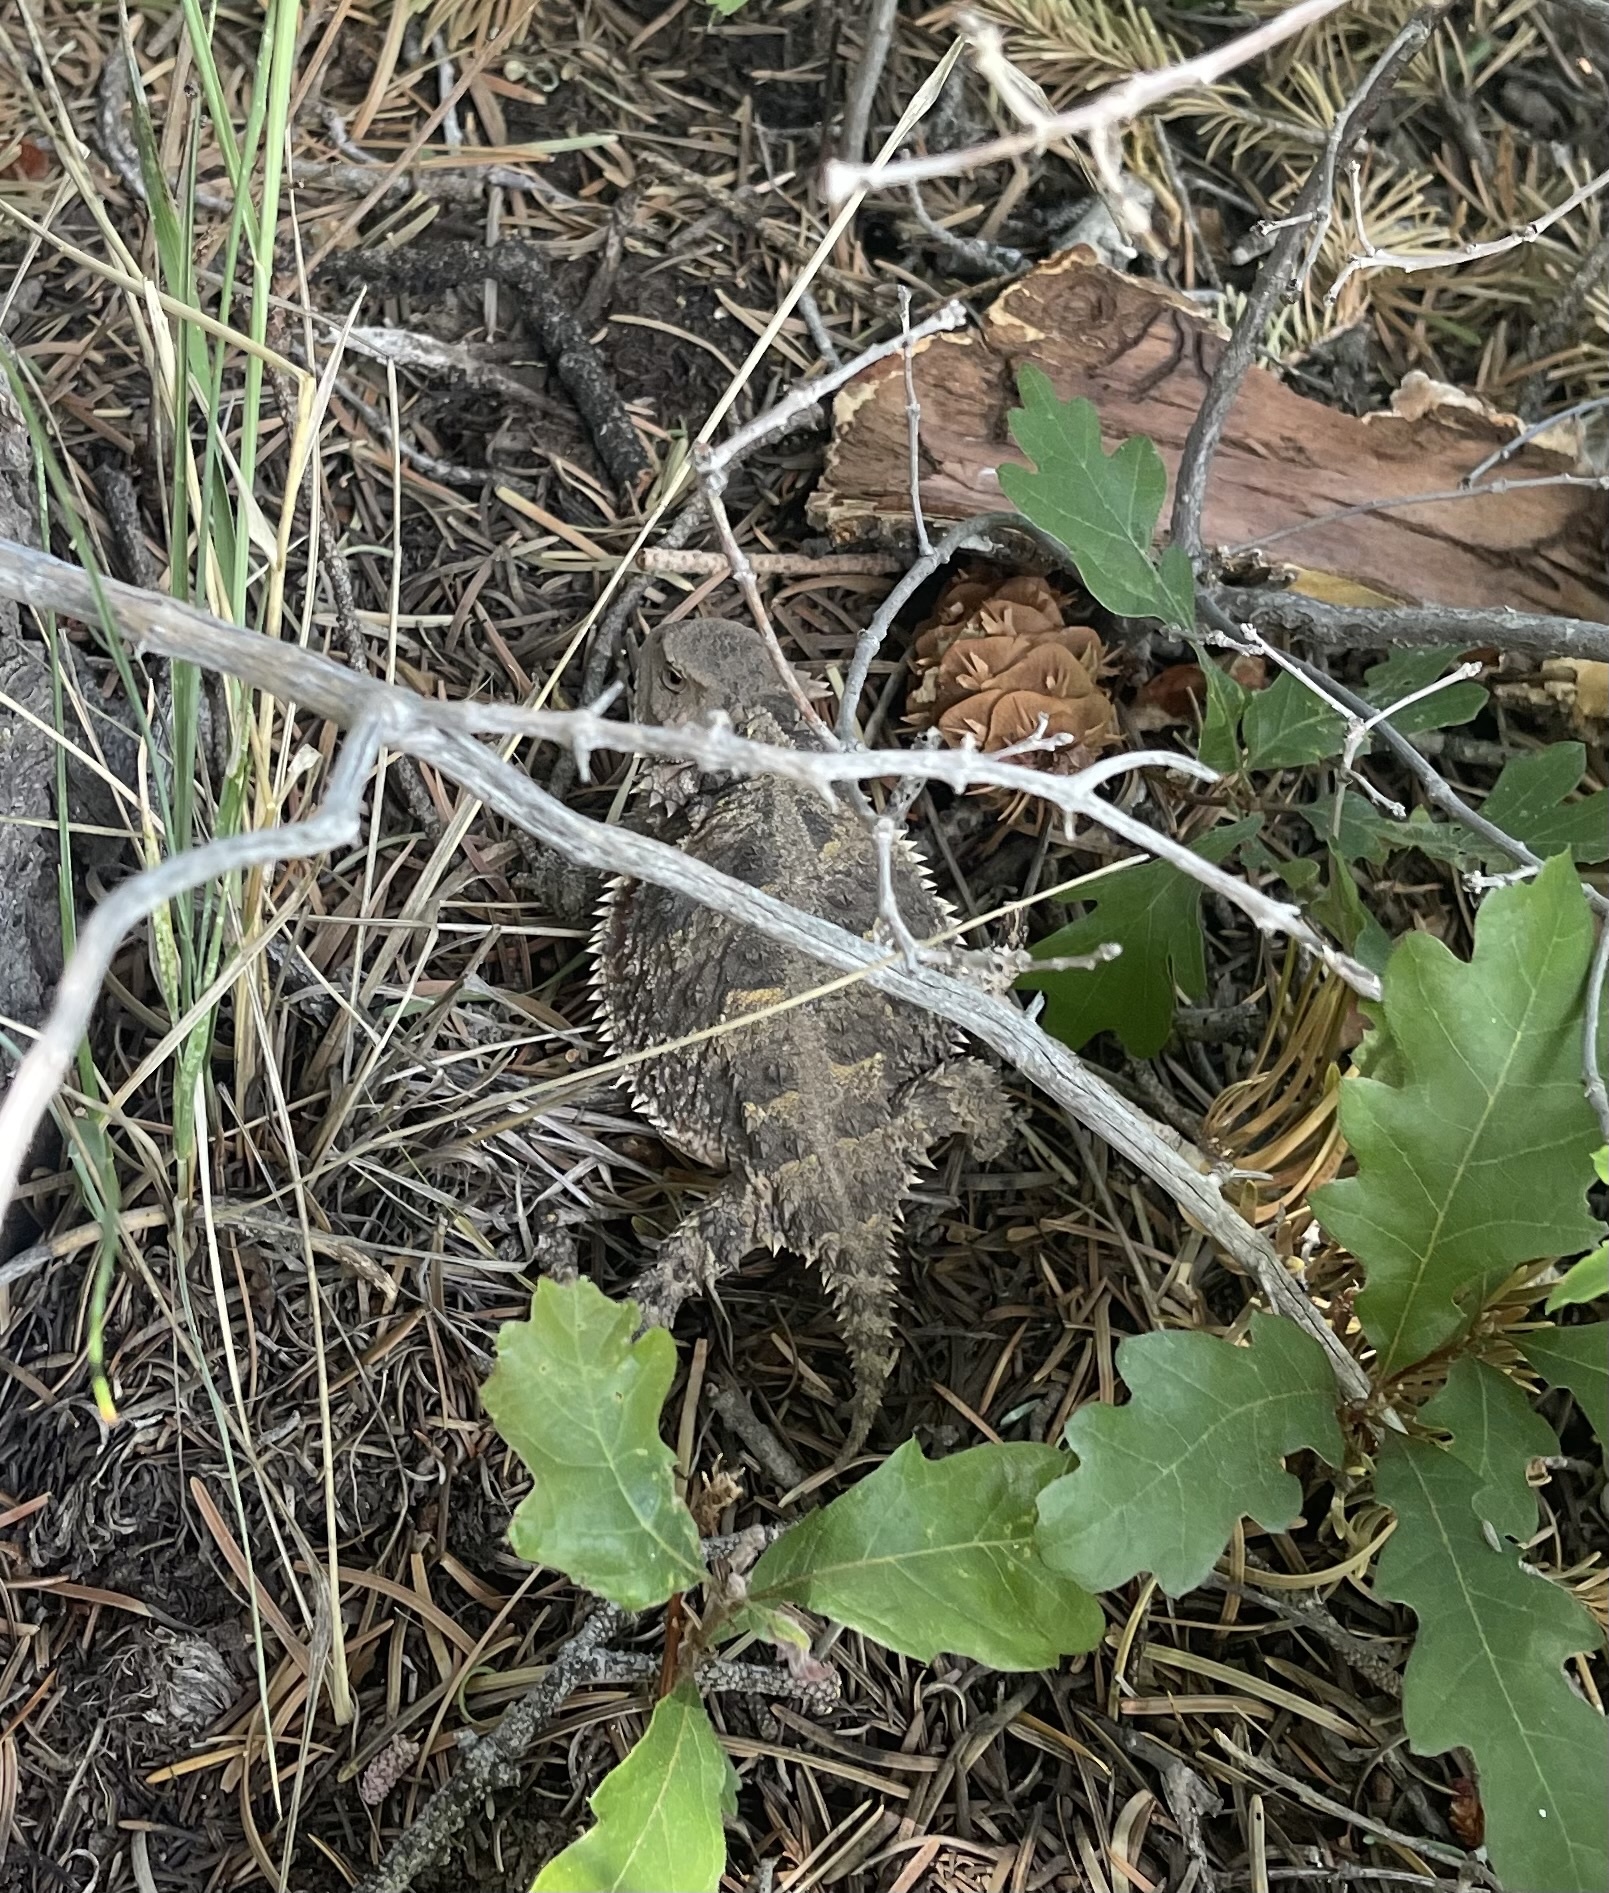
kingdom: Animalia
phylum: Chordata
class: Squamata
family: Phrynosomatidae
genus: Phrynosoma
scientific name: Phrynosoma hernandesi
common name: Greater short-horned lizard
